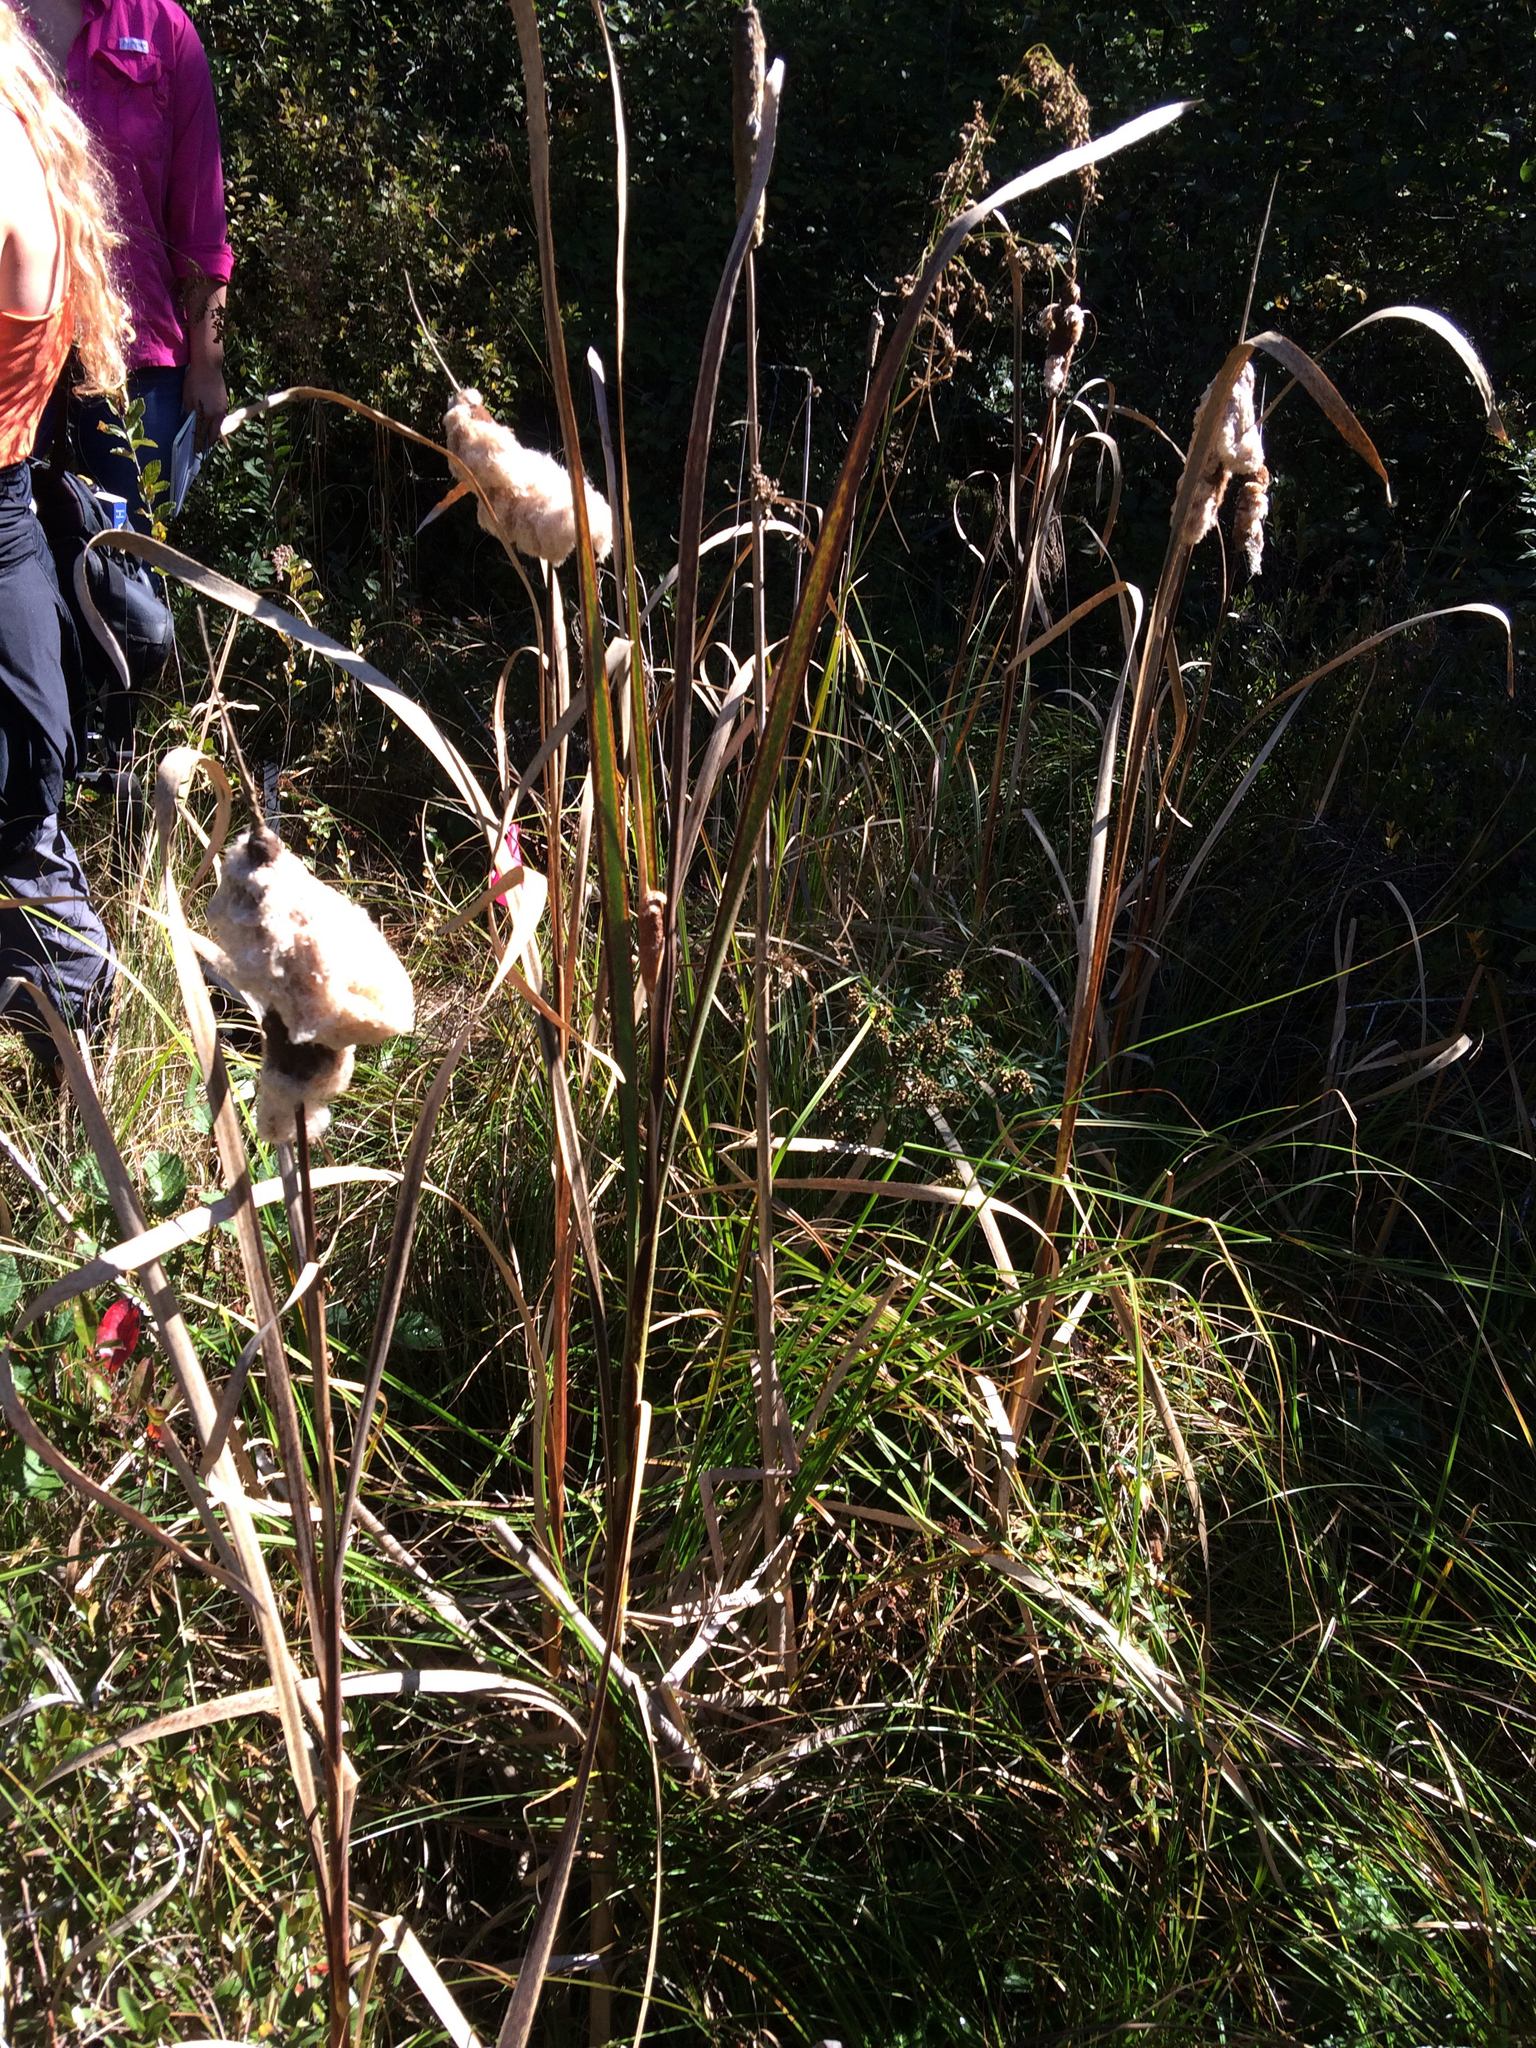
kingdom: Plantae
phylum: Tracheophyta
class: Liliopsida
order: Poales
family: Typhaceae
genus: Typha
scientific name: Typha latifolia
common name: Broadleaf cattail
